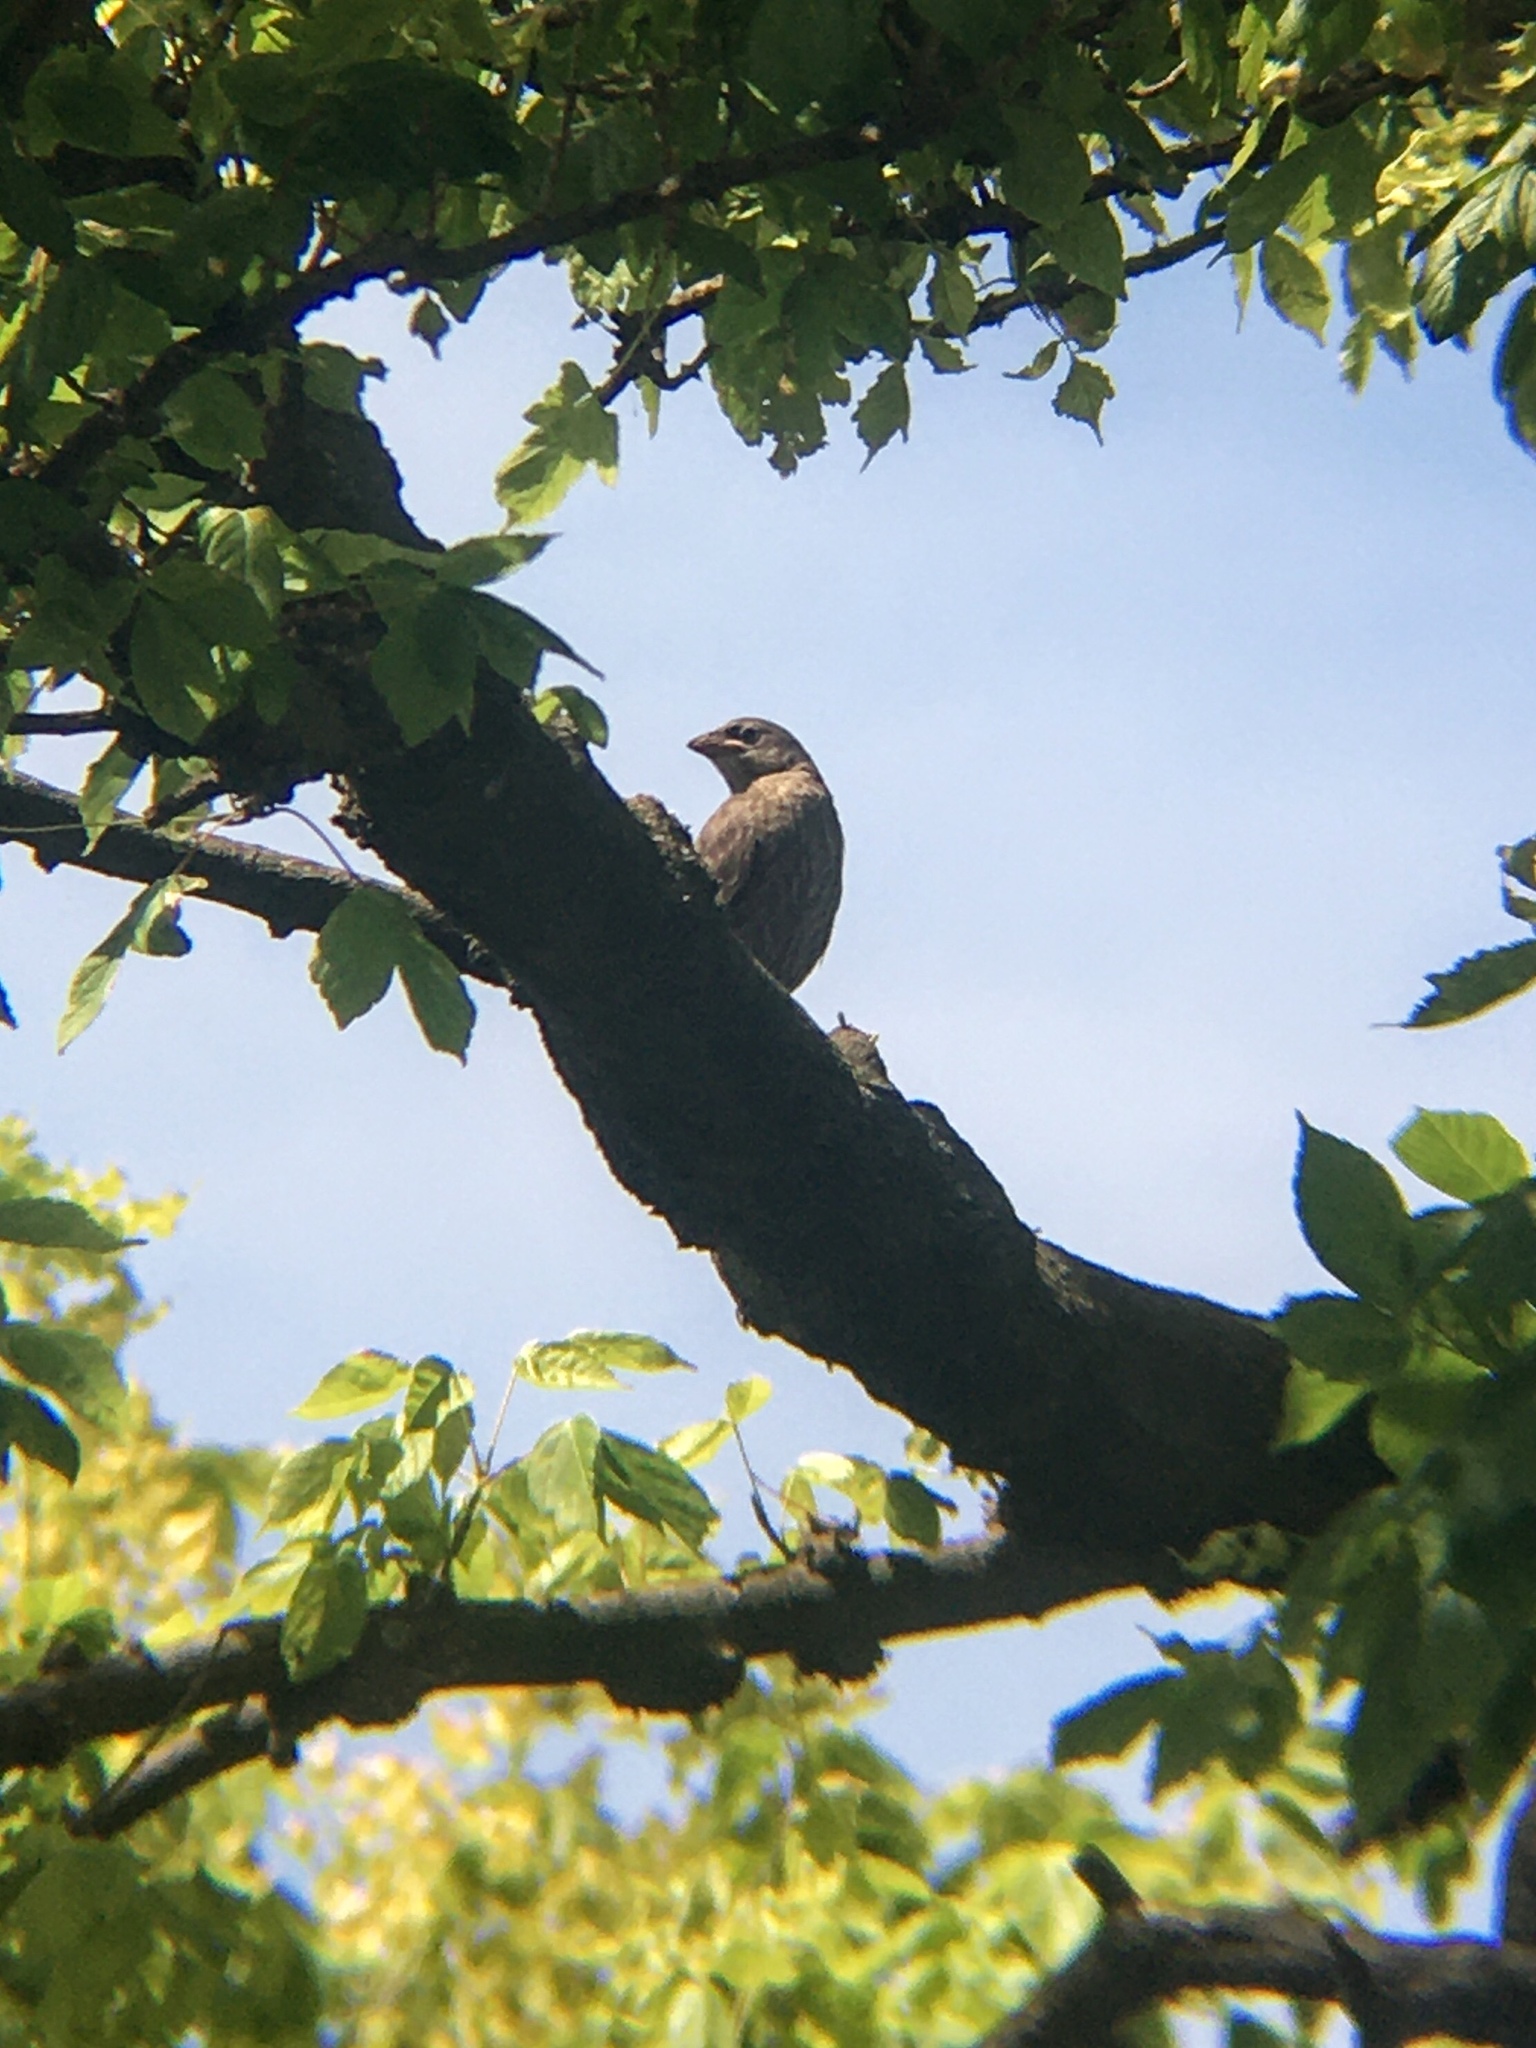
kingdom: Animalia
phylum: Chordata
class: Aves
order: Passeriformes
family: Icteridae
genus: Molothrus
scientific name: Molothrus bonariensis
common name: Shiny cowbird
